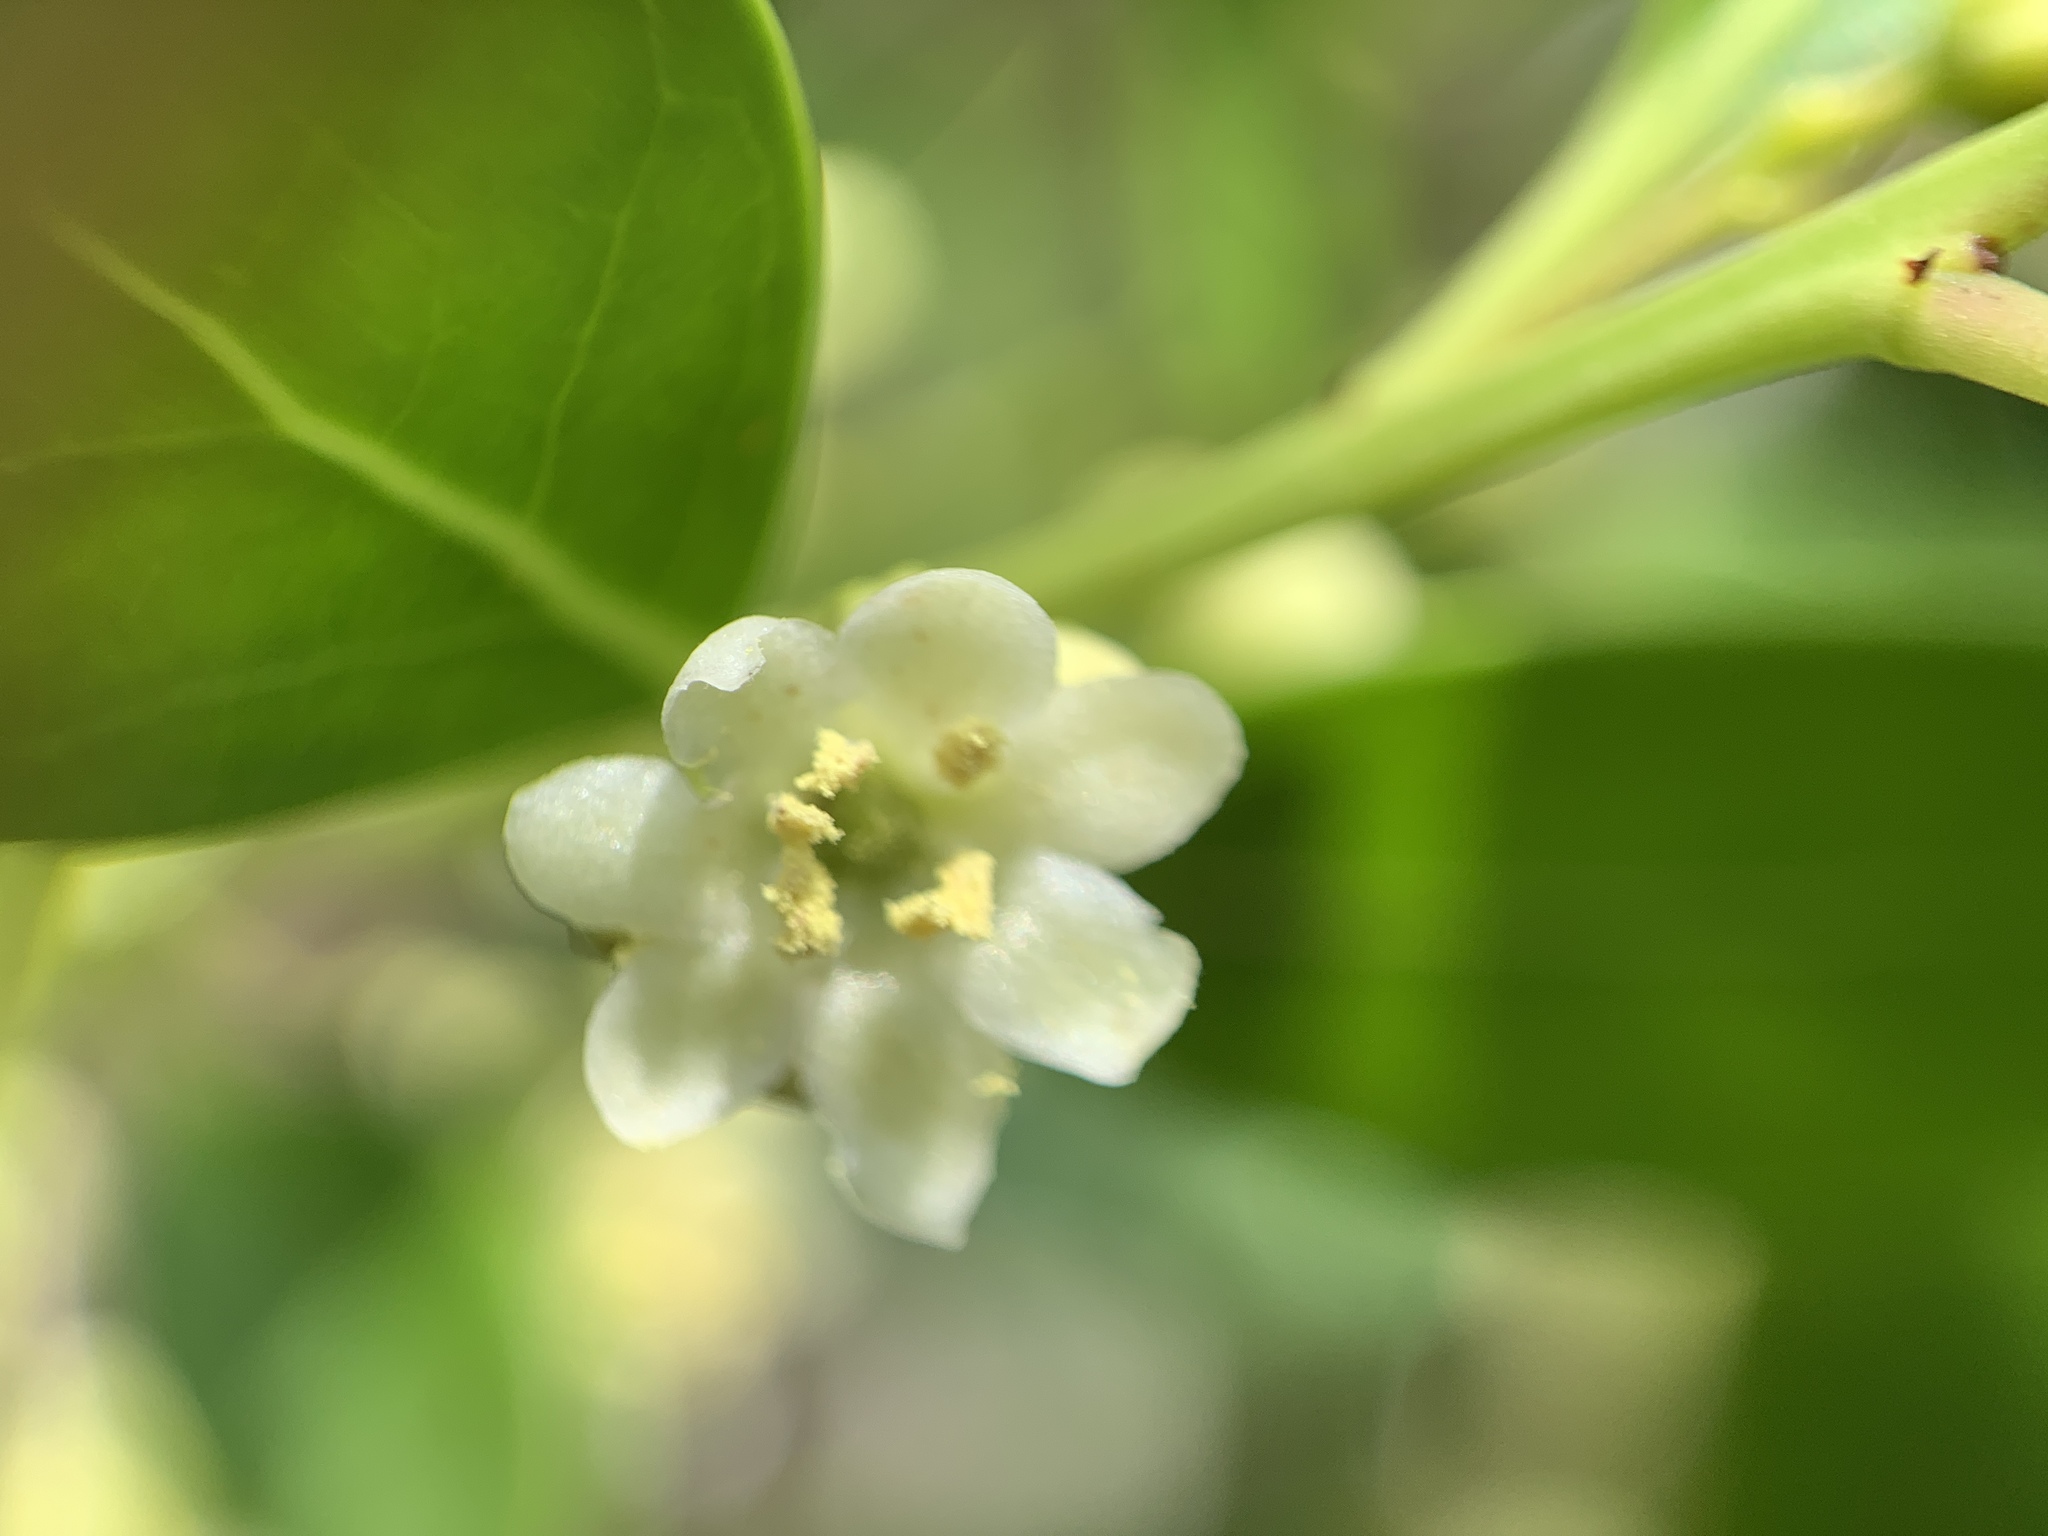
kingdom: Plantae
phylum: Tracheophyta
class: Magnoliopsida
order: Aquifoliales
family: Aquifoliaceae
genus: Ilex
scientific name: Ilex glabra
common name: Bitter gallberry
